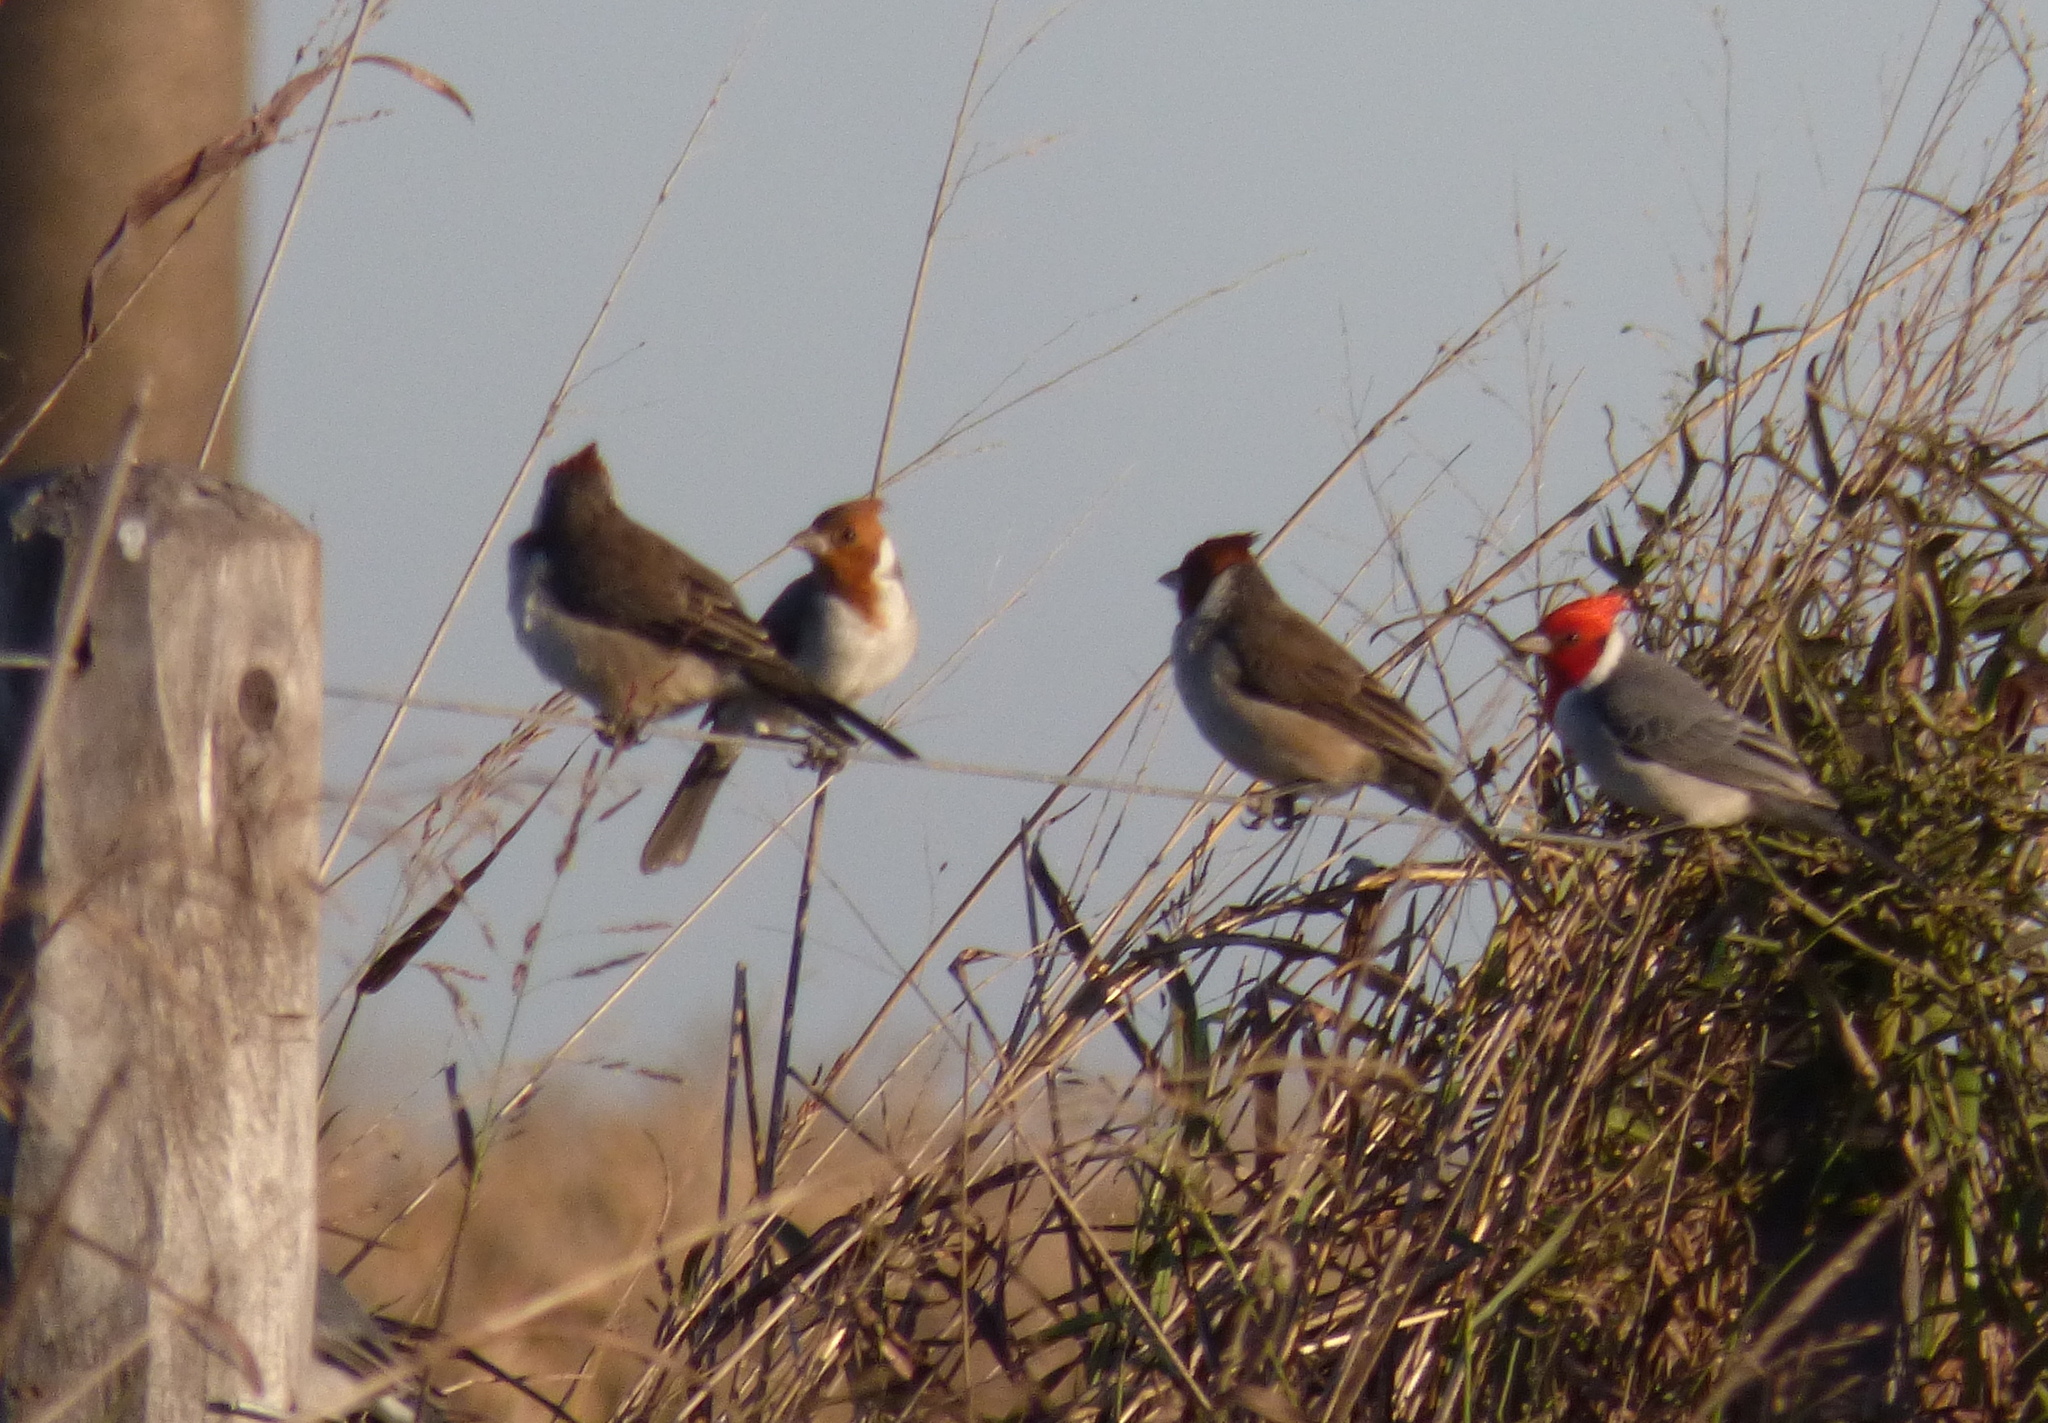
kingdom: Animalia
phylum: Chordata
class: Aves
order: Passeriformes
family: Thraupidae
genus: Paroaria
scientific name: Paroaria coronata
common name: Red-crested cardinal
